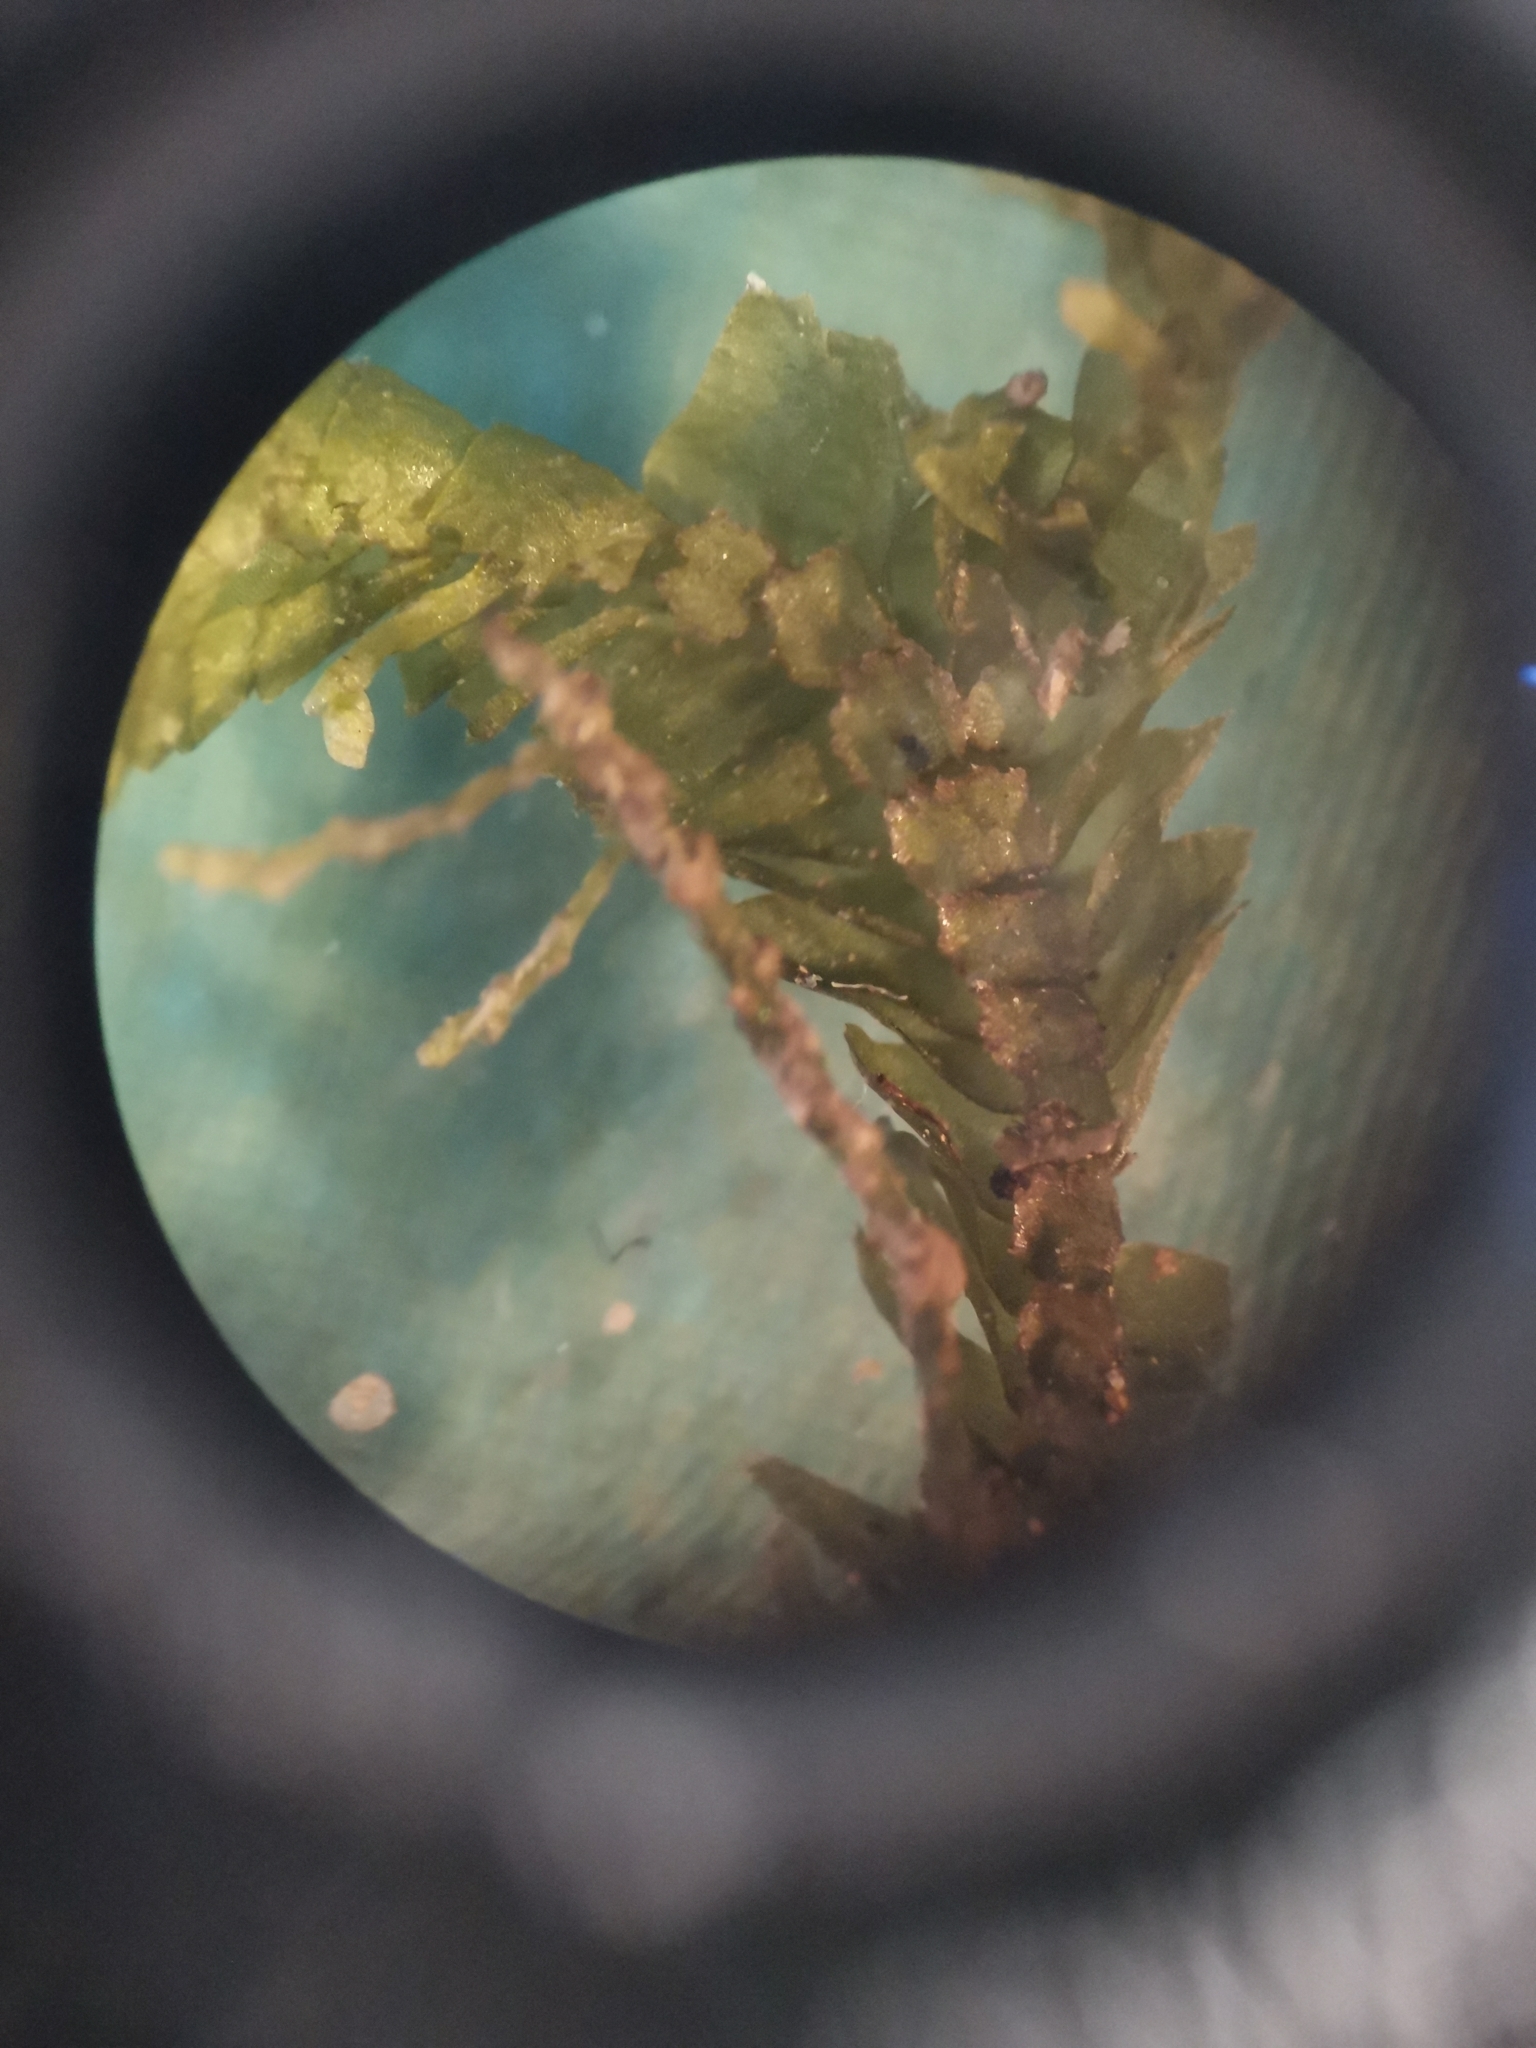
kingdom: Plantae
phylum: Marchantiophyta
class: Jungermanniopsida
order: Jungermanniales
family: Lepidoziaceae
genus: Bazzania
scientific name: Bazzania trilobata
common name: Three-lobed whipwort
